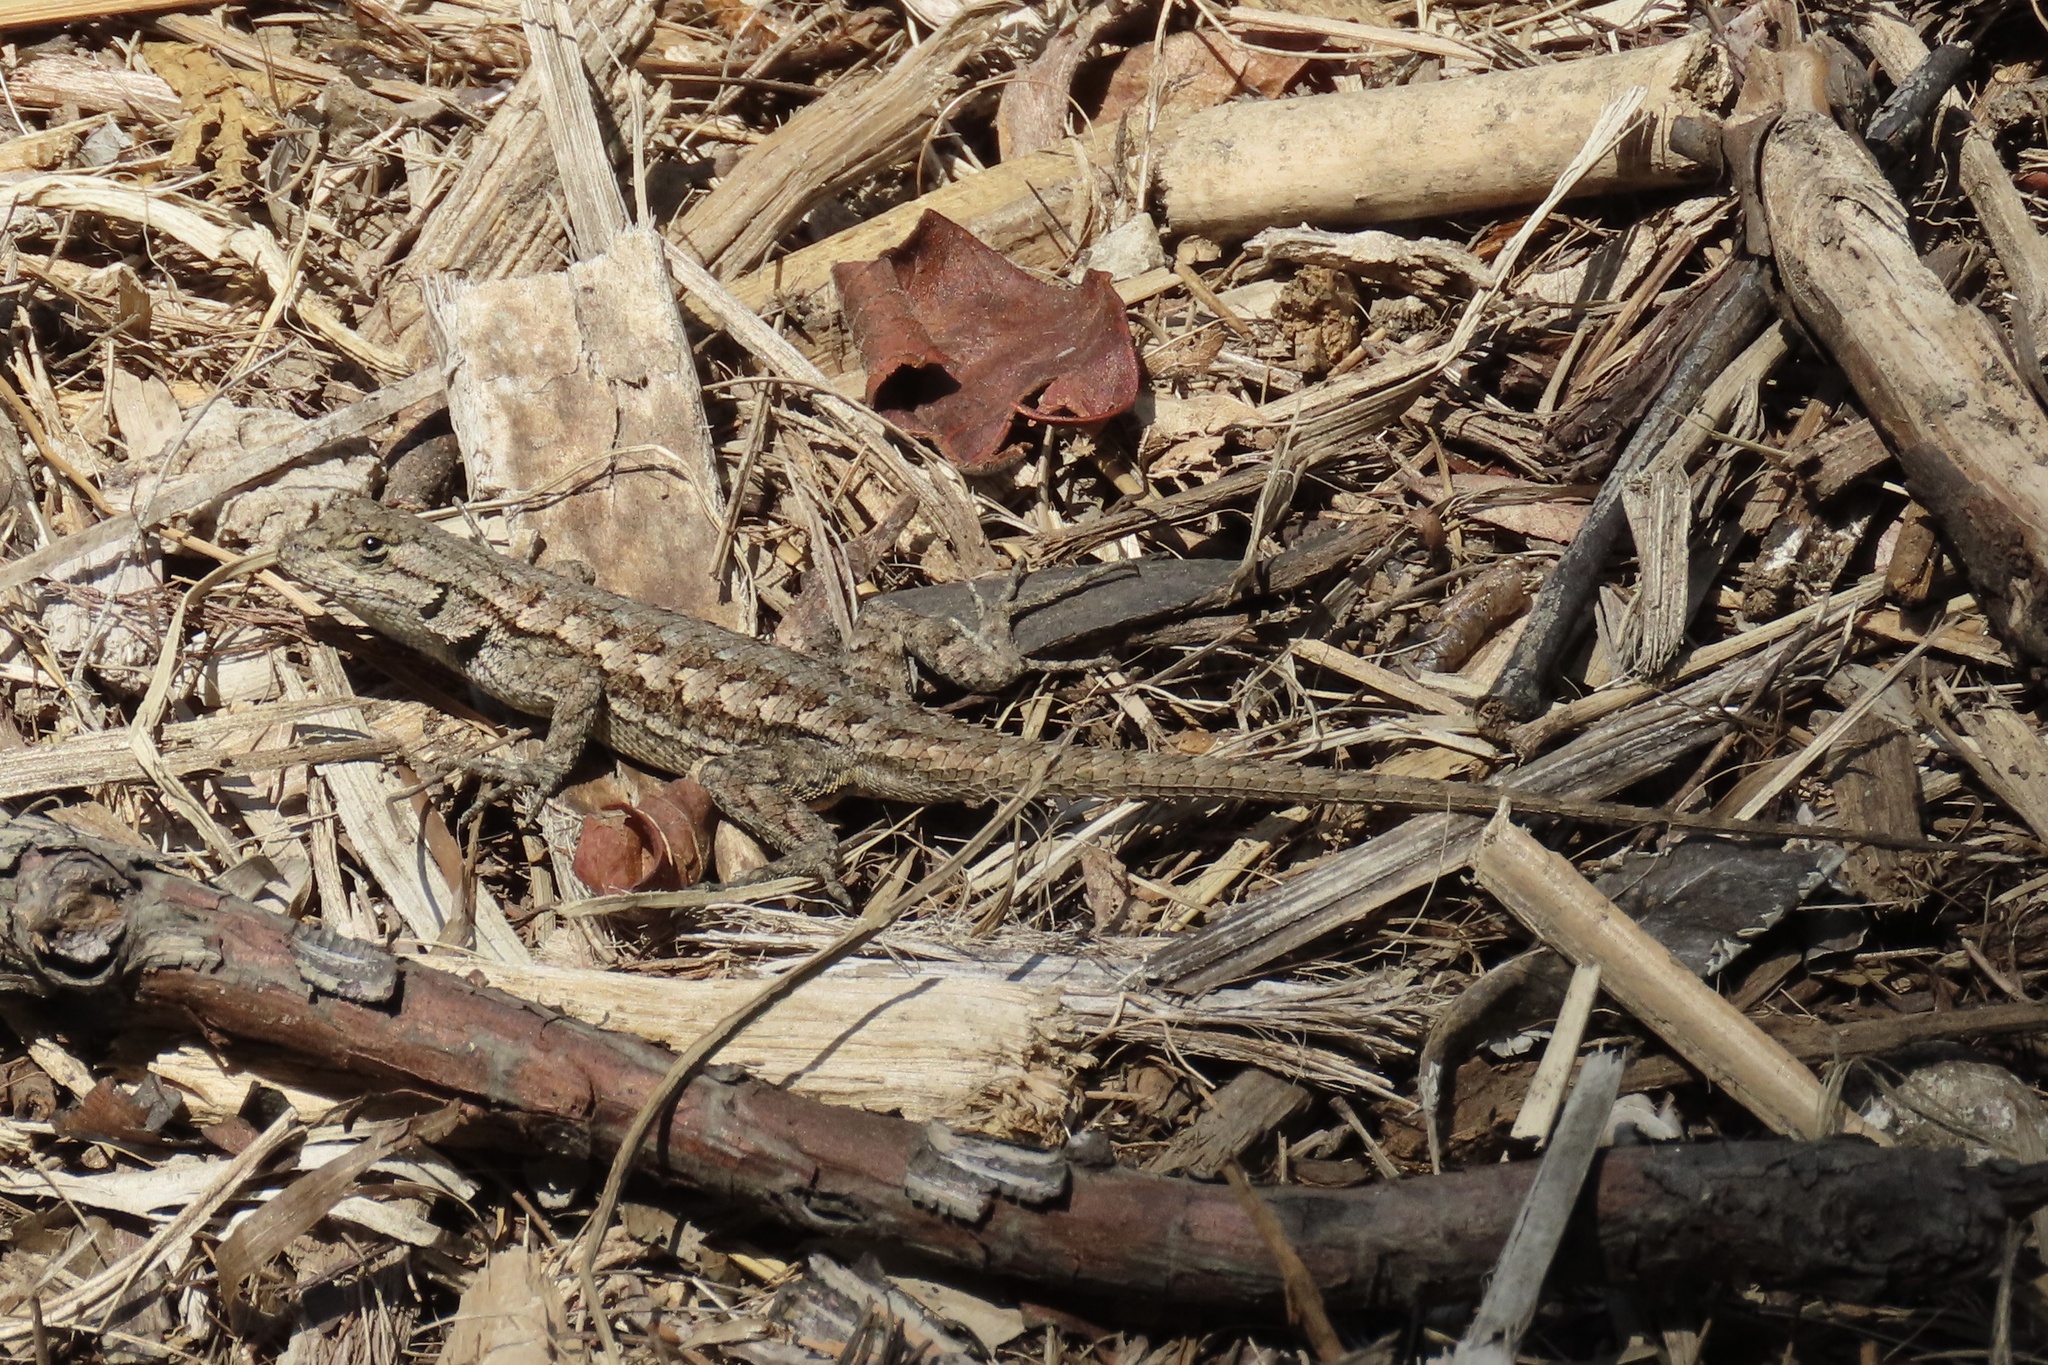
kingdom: Animalia
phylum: Chordata
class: Squamata
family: Phrynosomatidae
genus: Sceloporus
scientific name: Sceloporus occidentalis
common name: Western fence lizard
